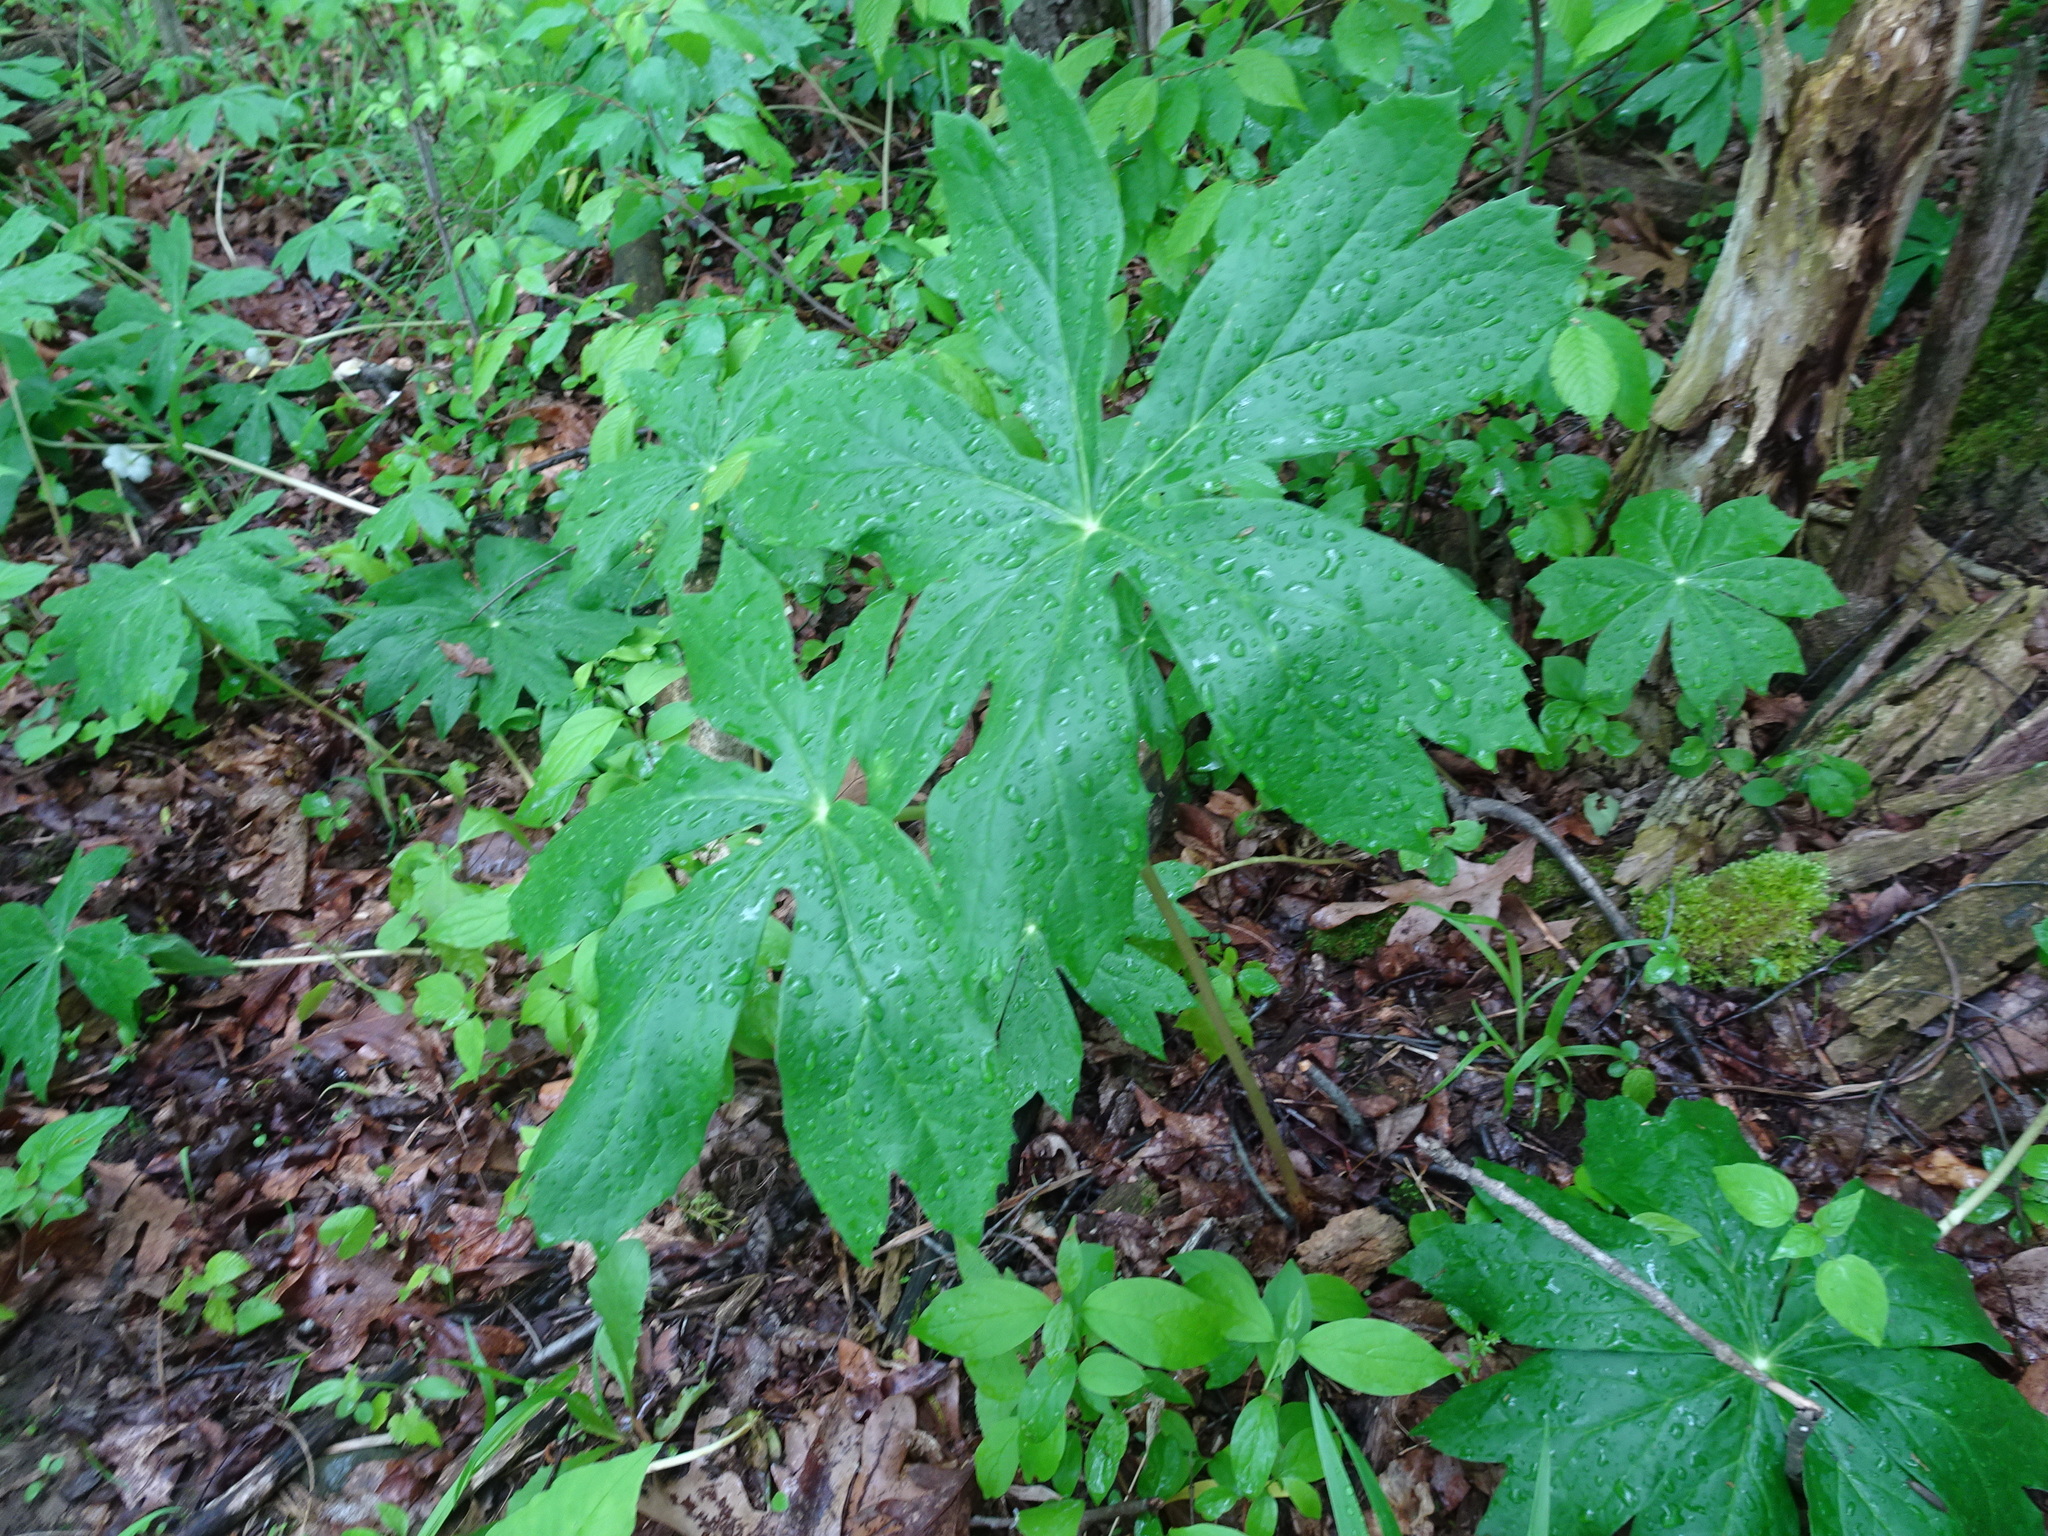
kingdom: Plantae
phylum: Tracheophyta
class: Magnoliopsida
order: Ranunculales
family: Berberidaceae
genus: Podophyllum
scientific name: Podophyllum peltatum
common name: Wild mandrake
